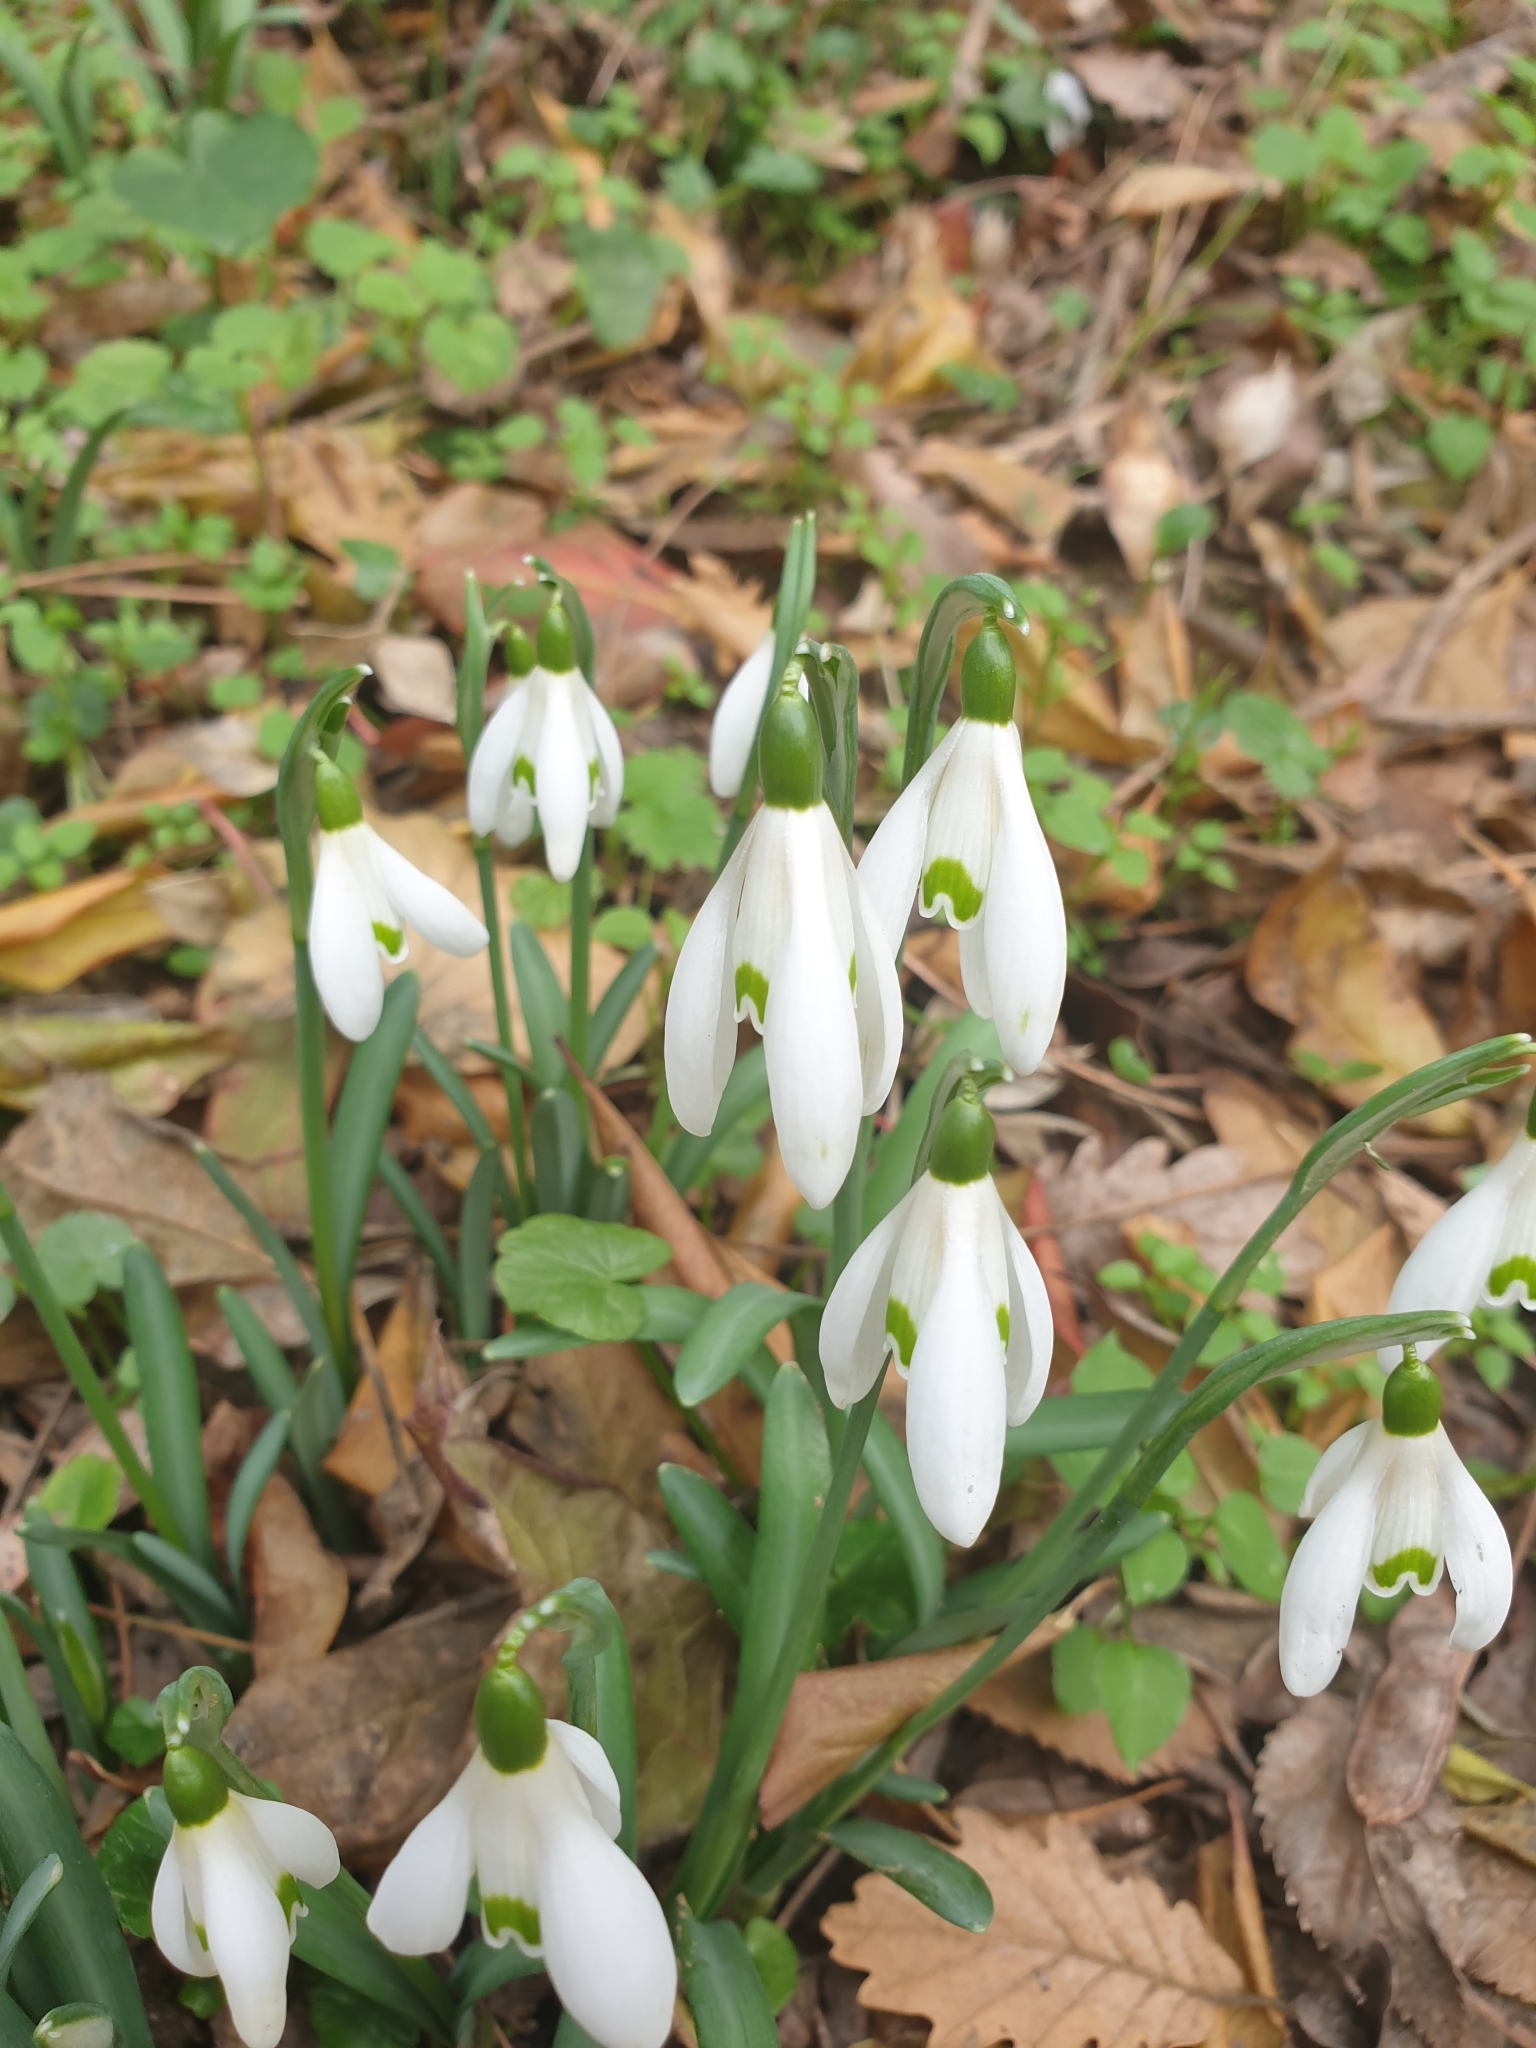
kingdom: Plantae
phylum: Tracheophyta
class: Liliopsida
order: Asparagales
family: Amaryllidaceae
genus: Galanthus
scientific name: Galanthus nivalis
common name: Snowdrop
